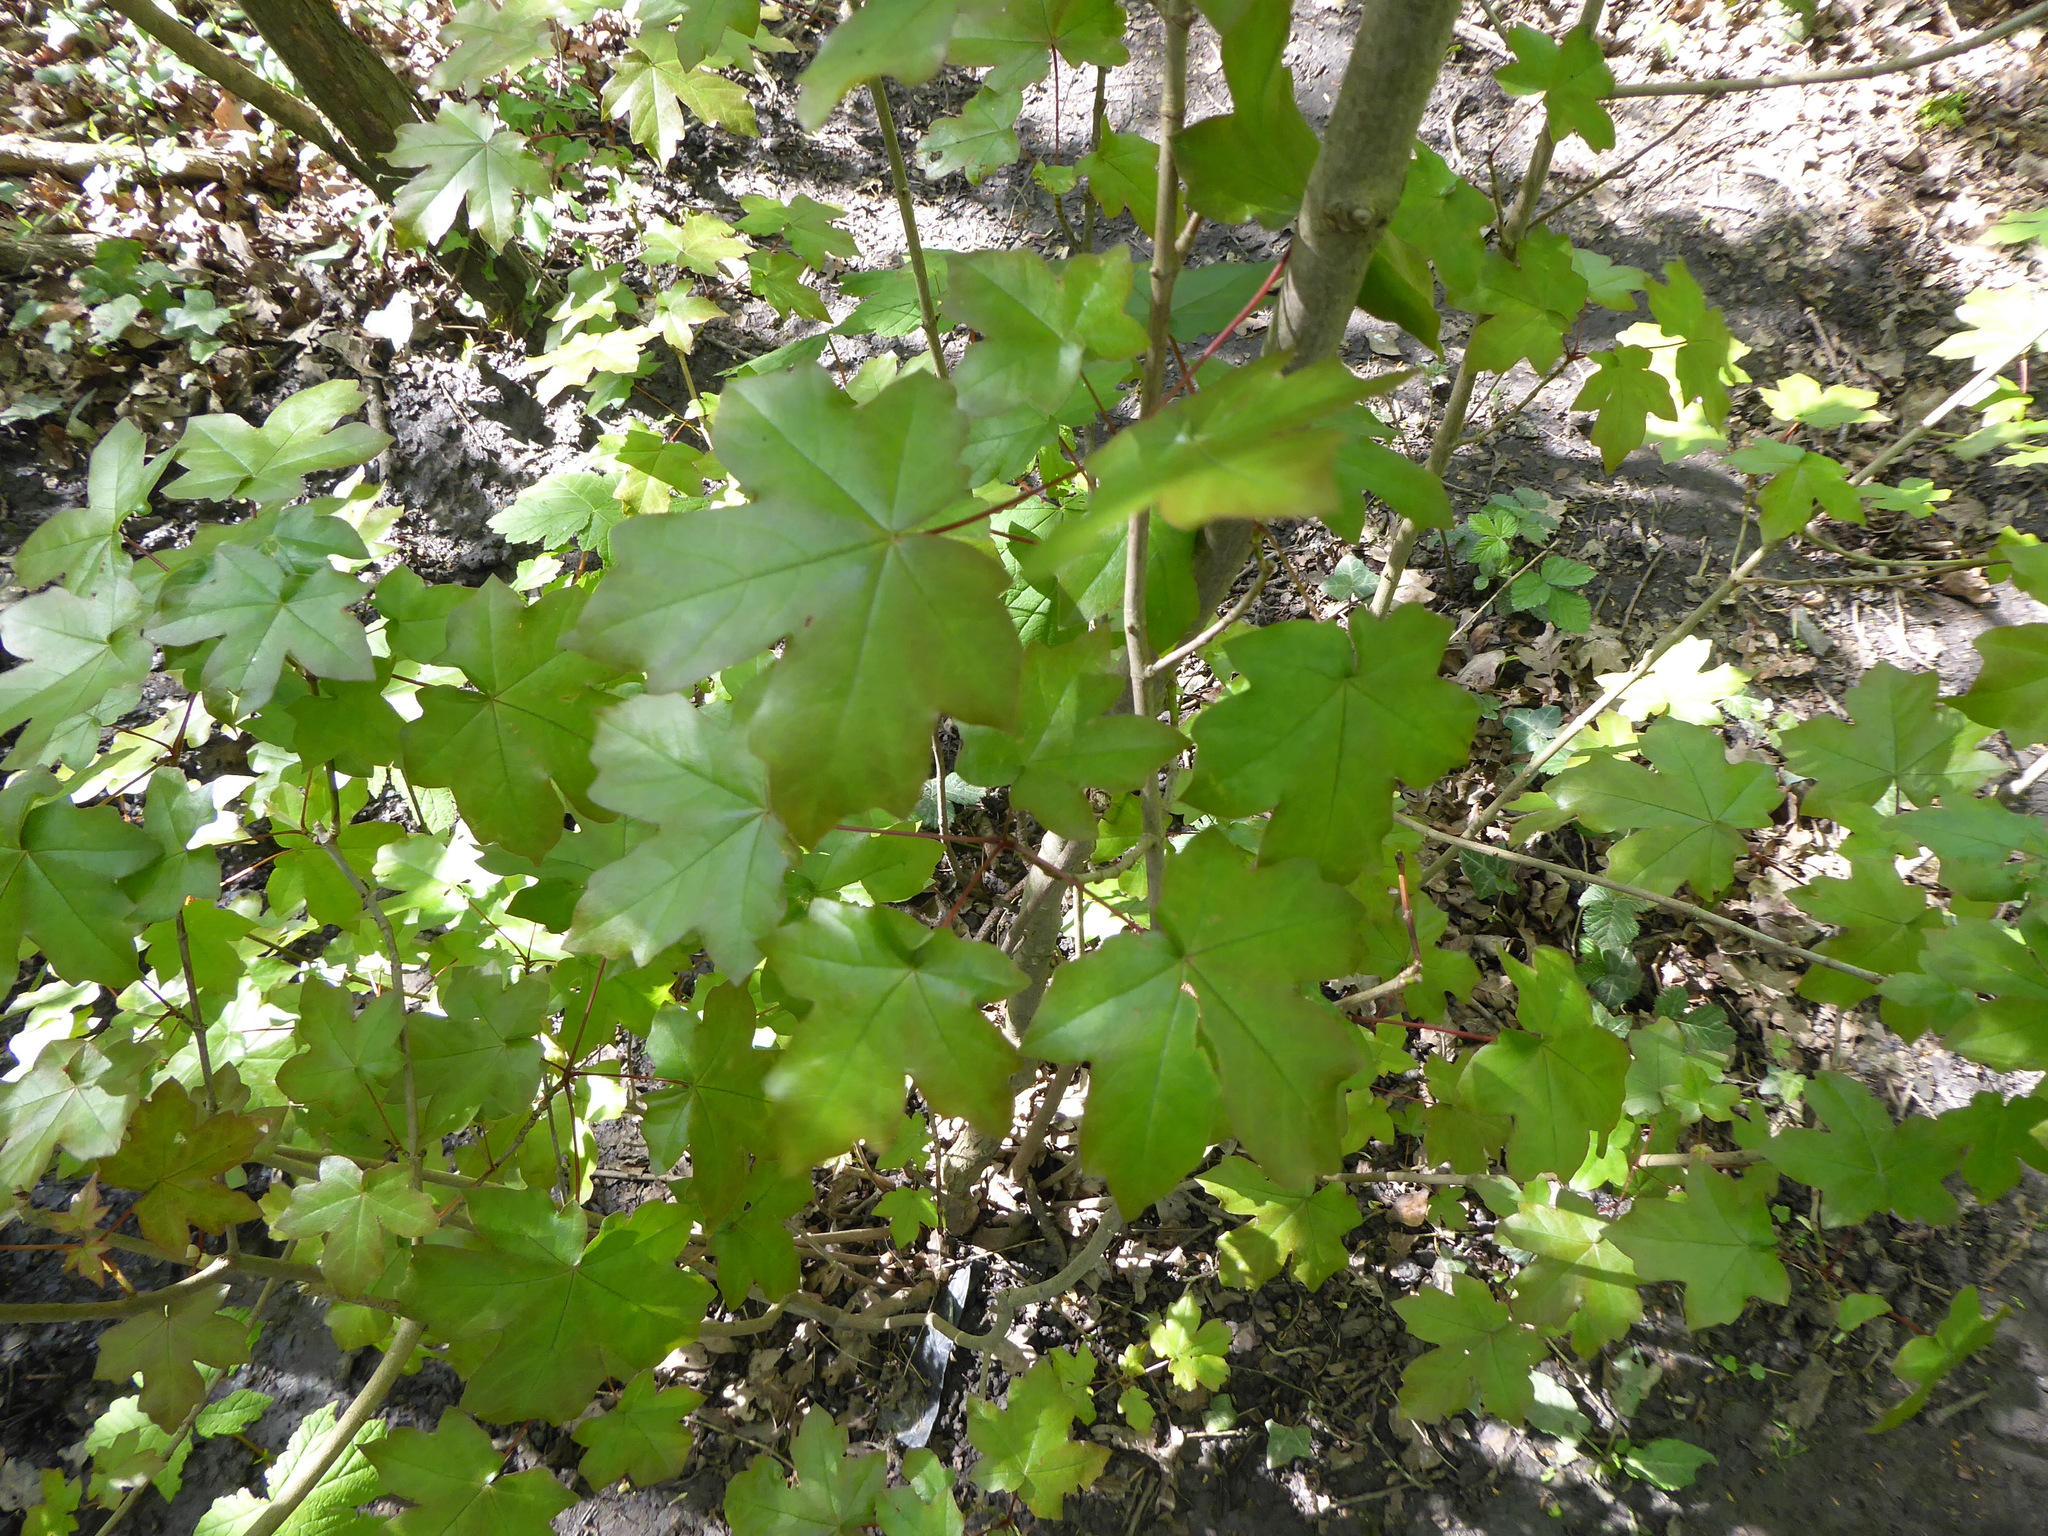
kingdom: Plantae
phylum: Tracheophyta
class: Magnoliopsida
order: Sapindales
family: Sapindaceae
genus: Acer
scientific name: Acer campestre
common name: Field maple
